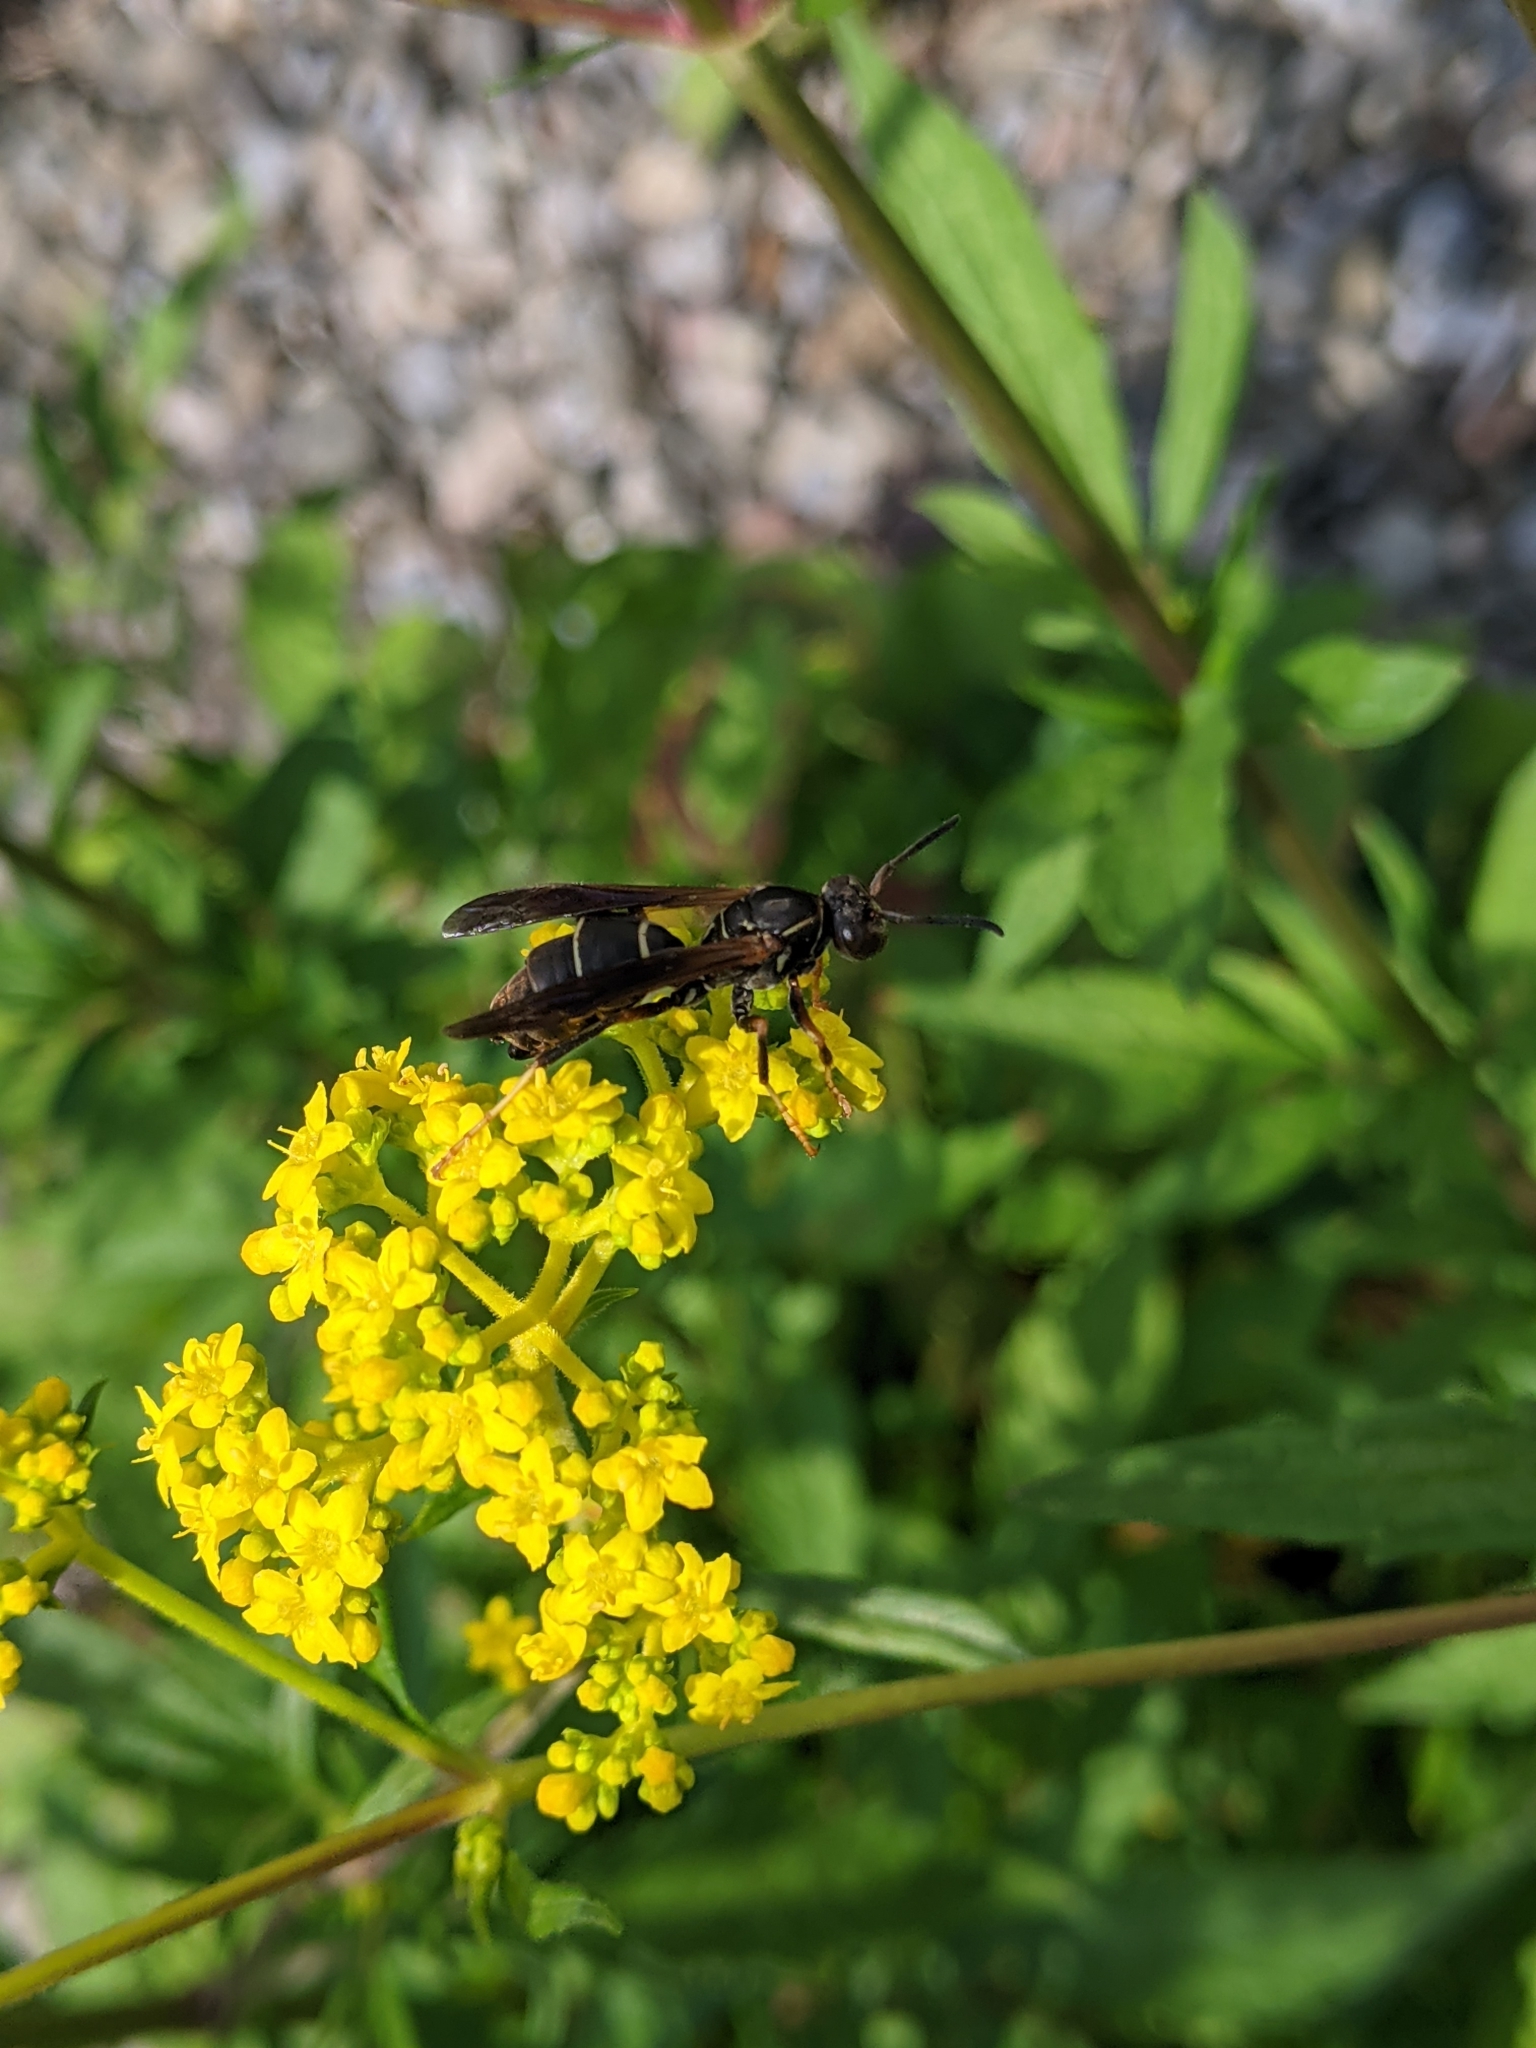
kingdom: Animalia
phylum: Arthropoda
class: Insecta
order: Hymenoptera
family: Eumenidae
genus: Polistes
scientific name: Polistes fuscatus
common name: Dark paper wasp
